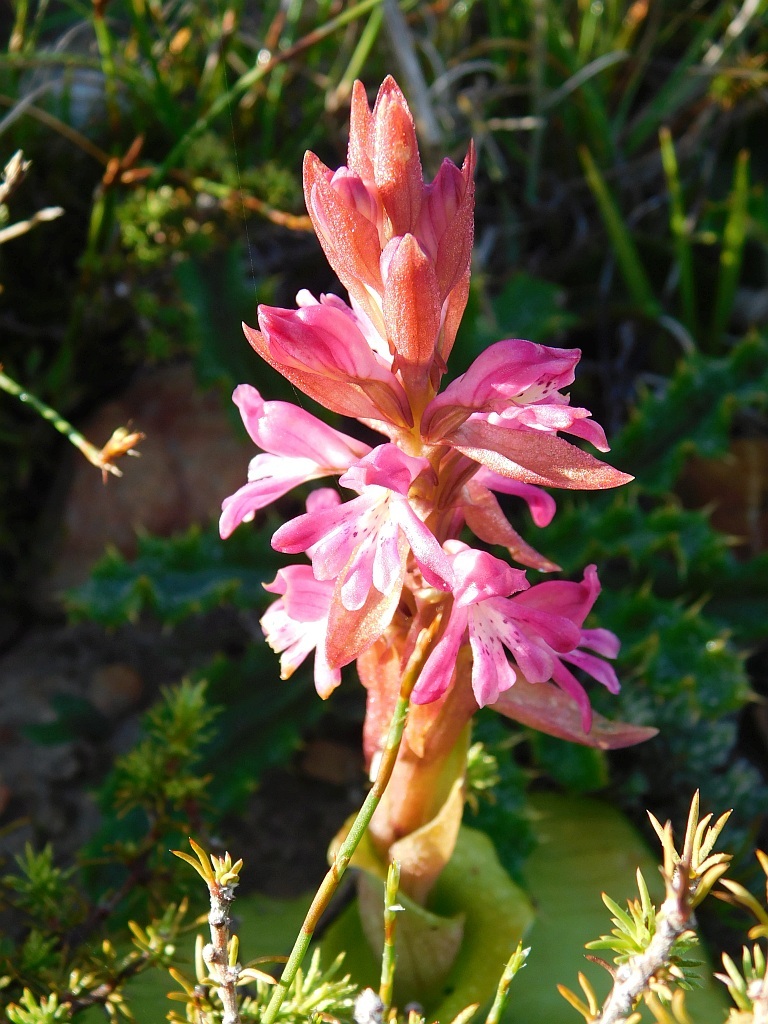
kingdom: Plantae
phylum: Tracheophyta
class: Liliopsida
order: Asparagales
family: Orchidaceae
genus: Satyrium
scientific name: Satyrium erectum
